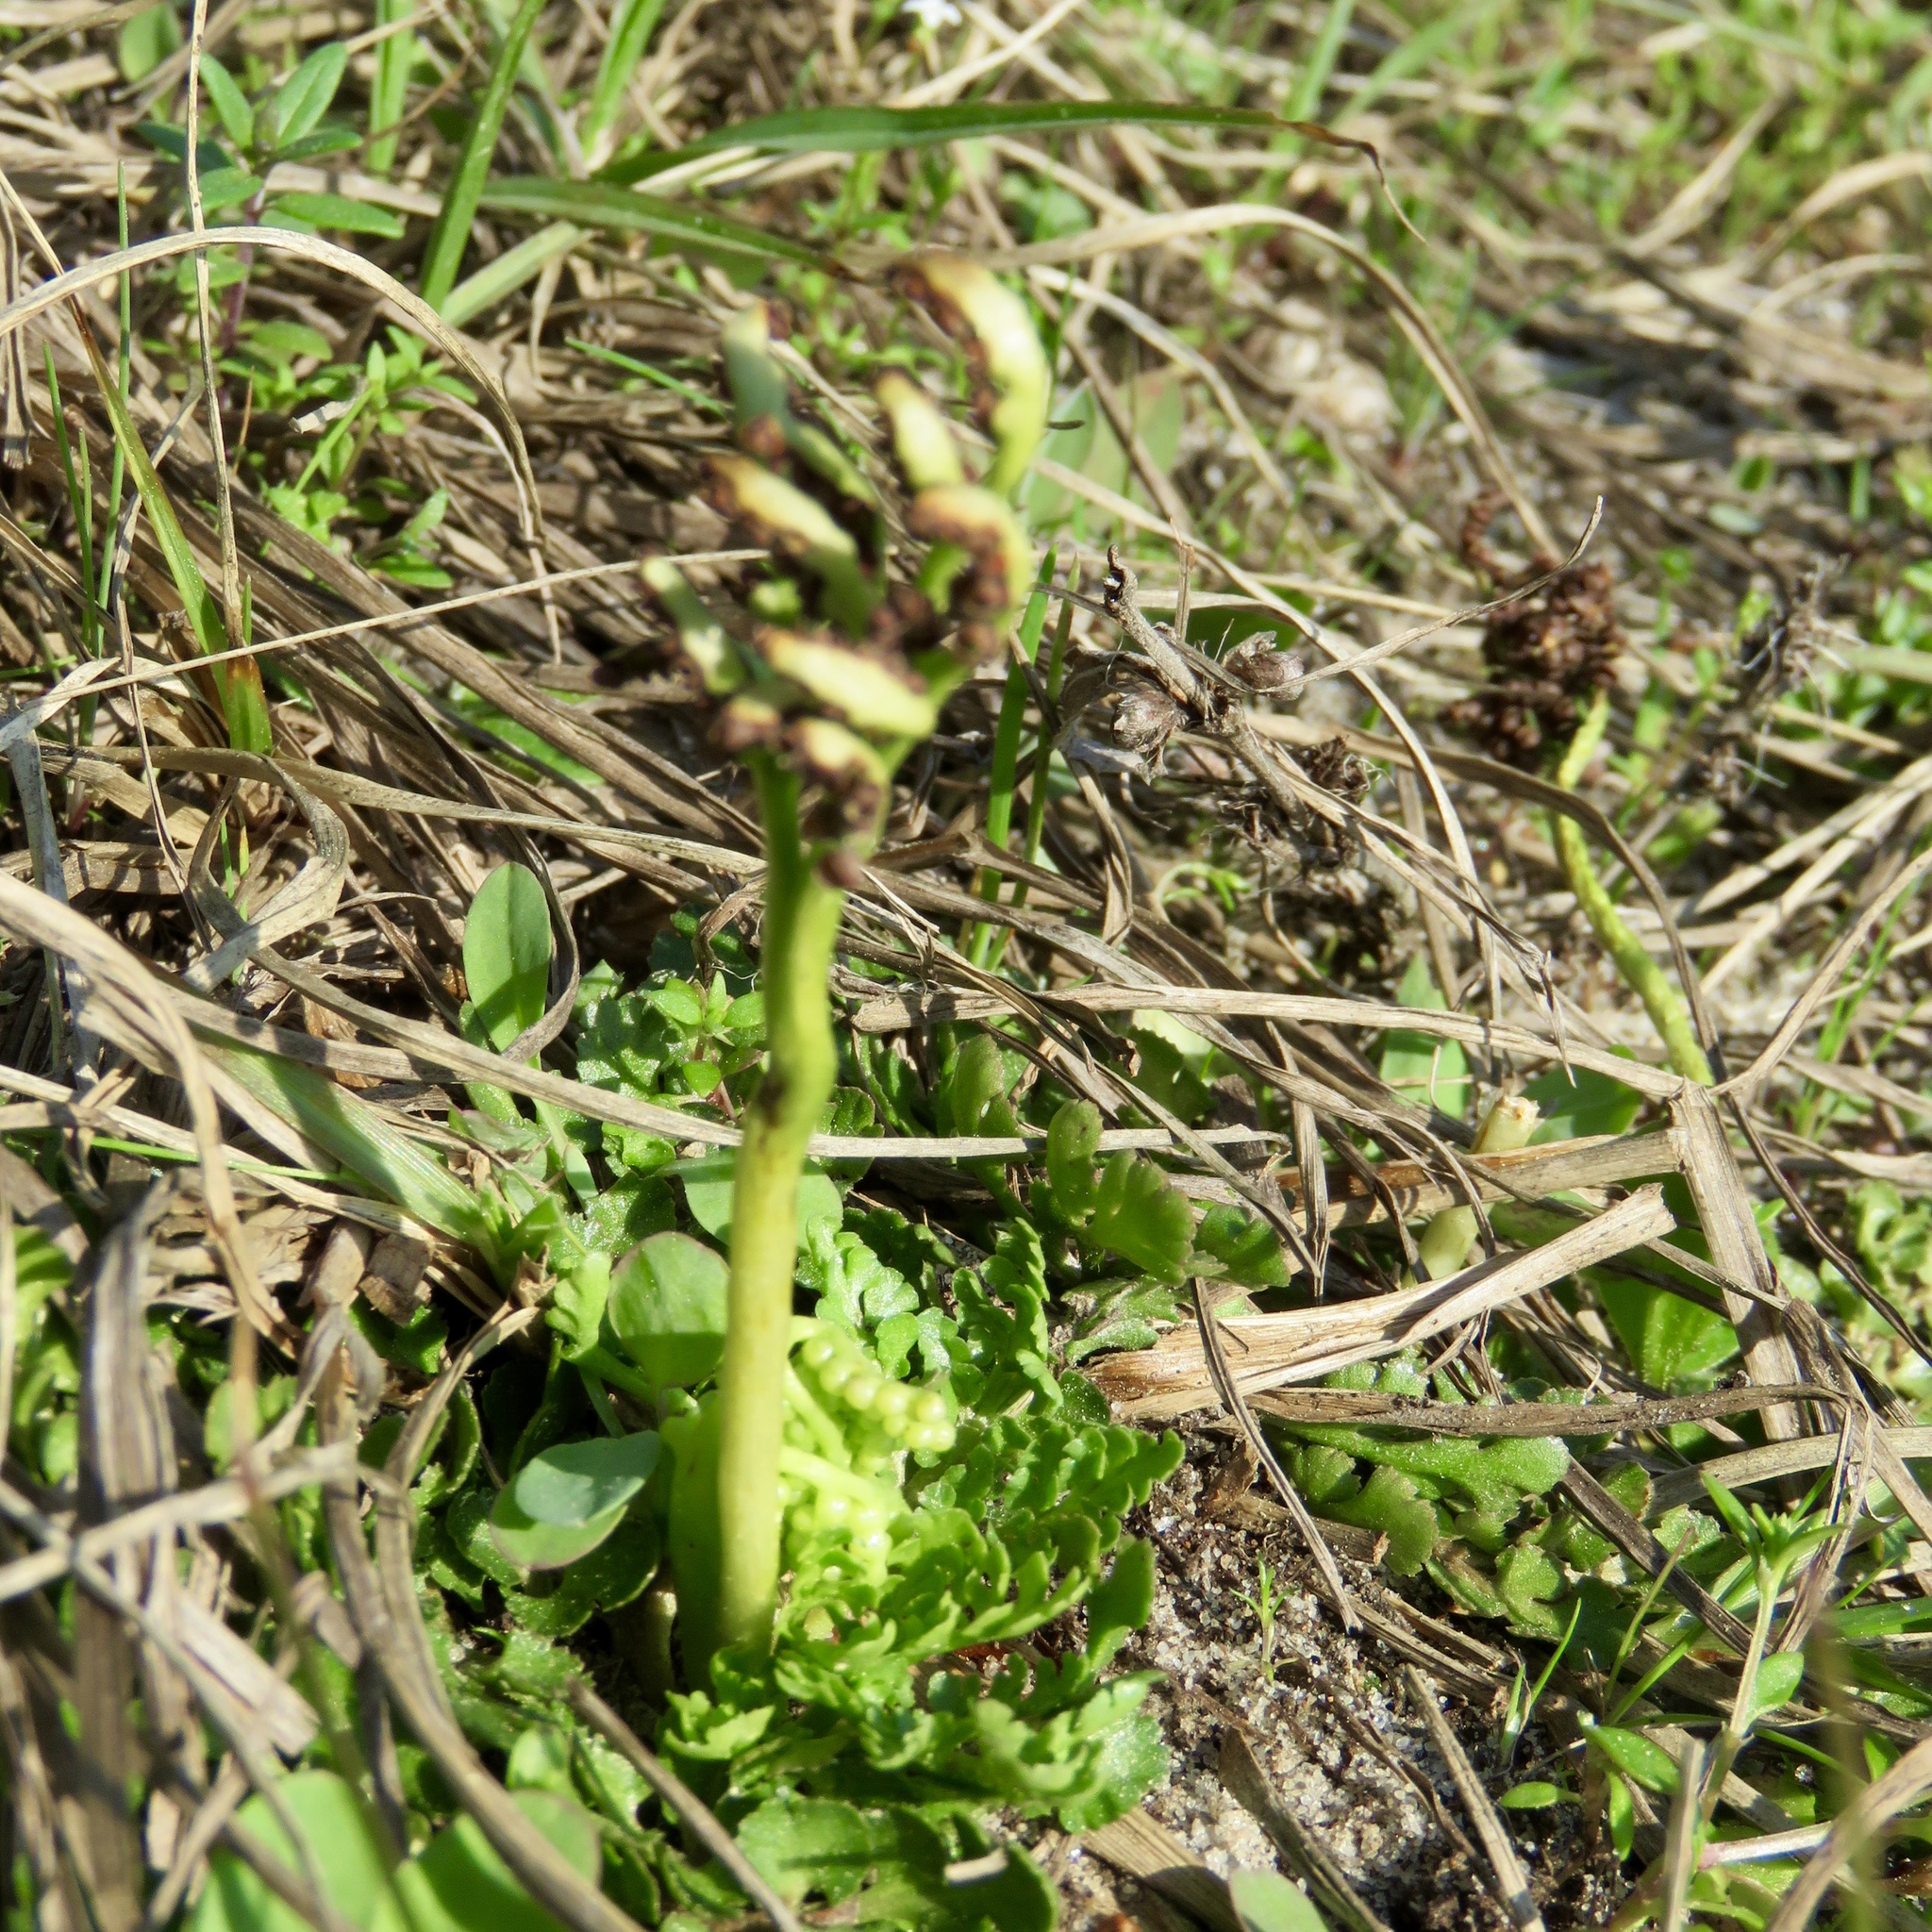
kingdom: Plantae
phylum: Tracheophyta
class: Polypodiopsida
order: Ophioglossales
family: Ophioglossaceae
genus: Sceptridium
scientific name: Sceptridium lunarioides
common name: Prostrate grapefern
